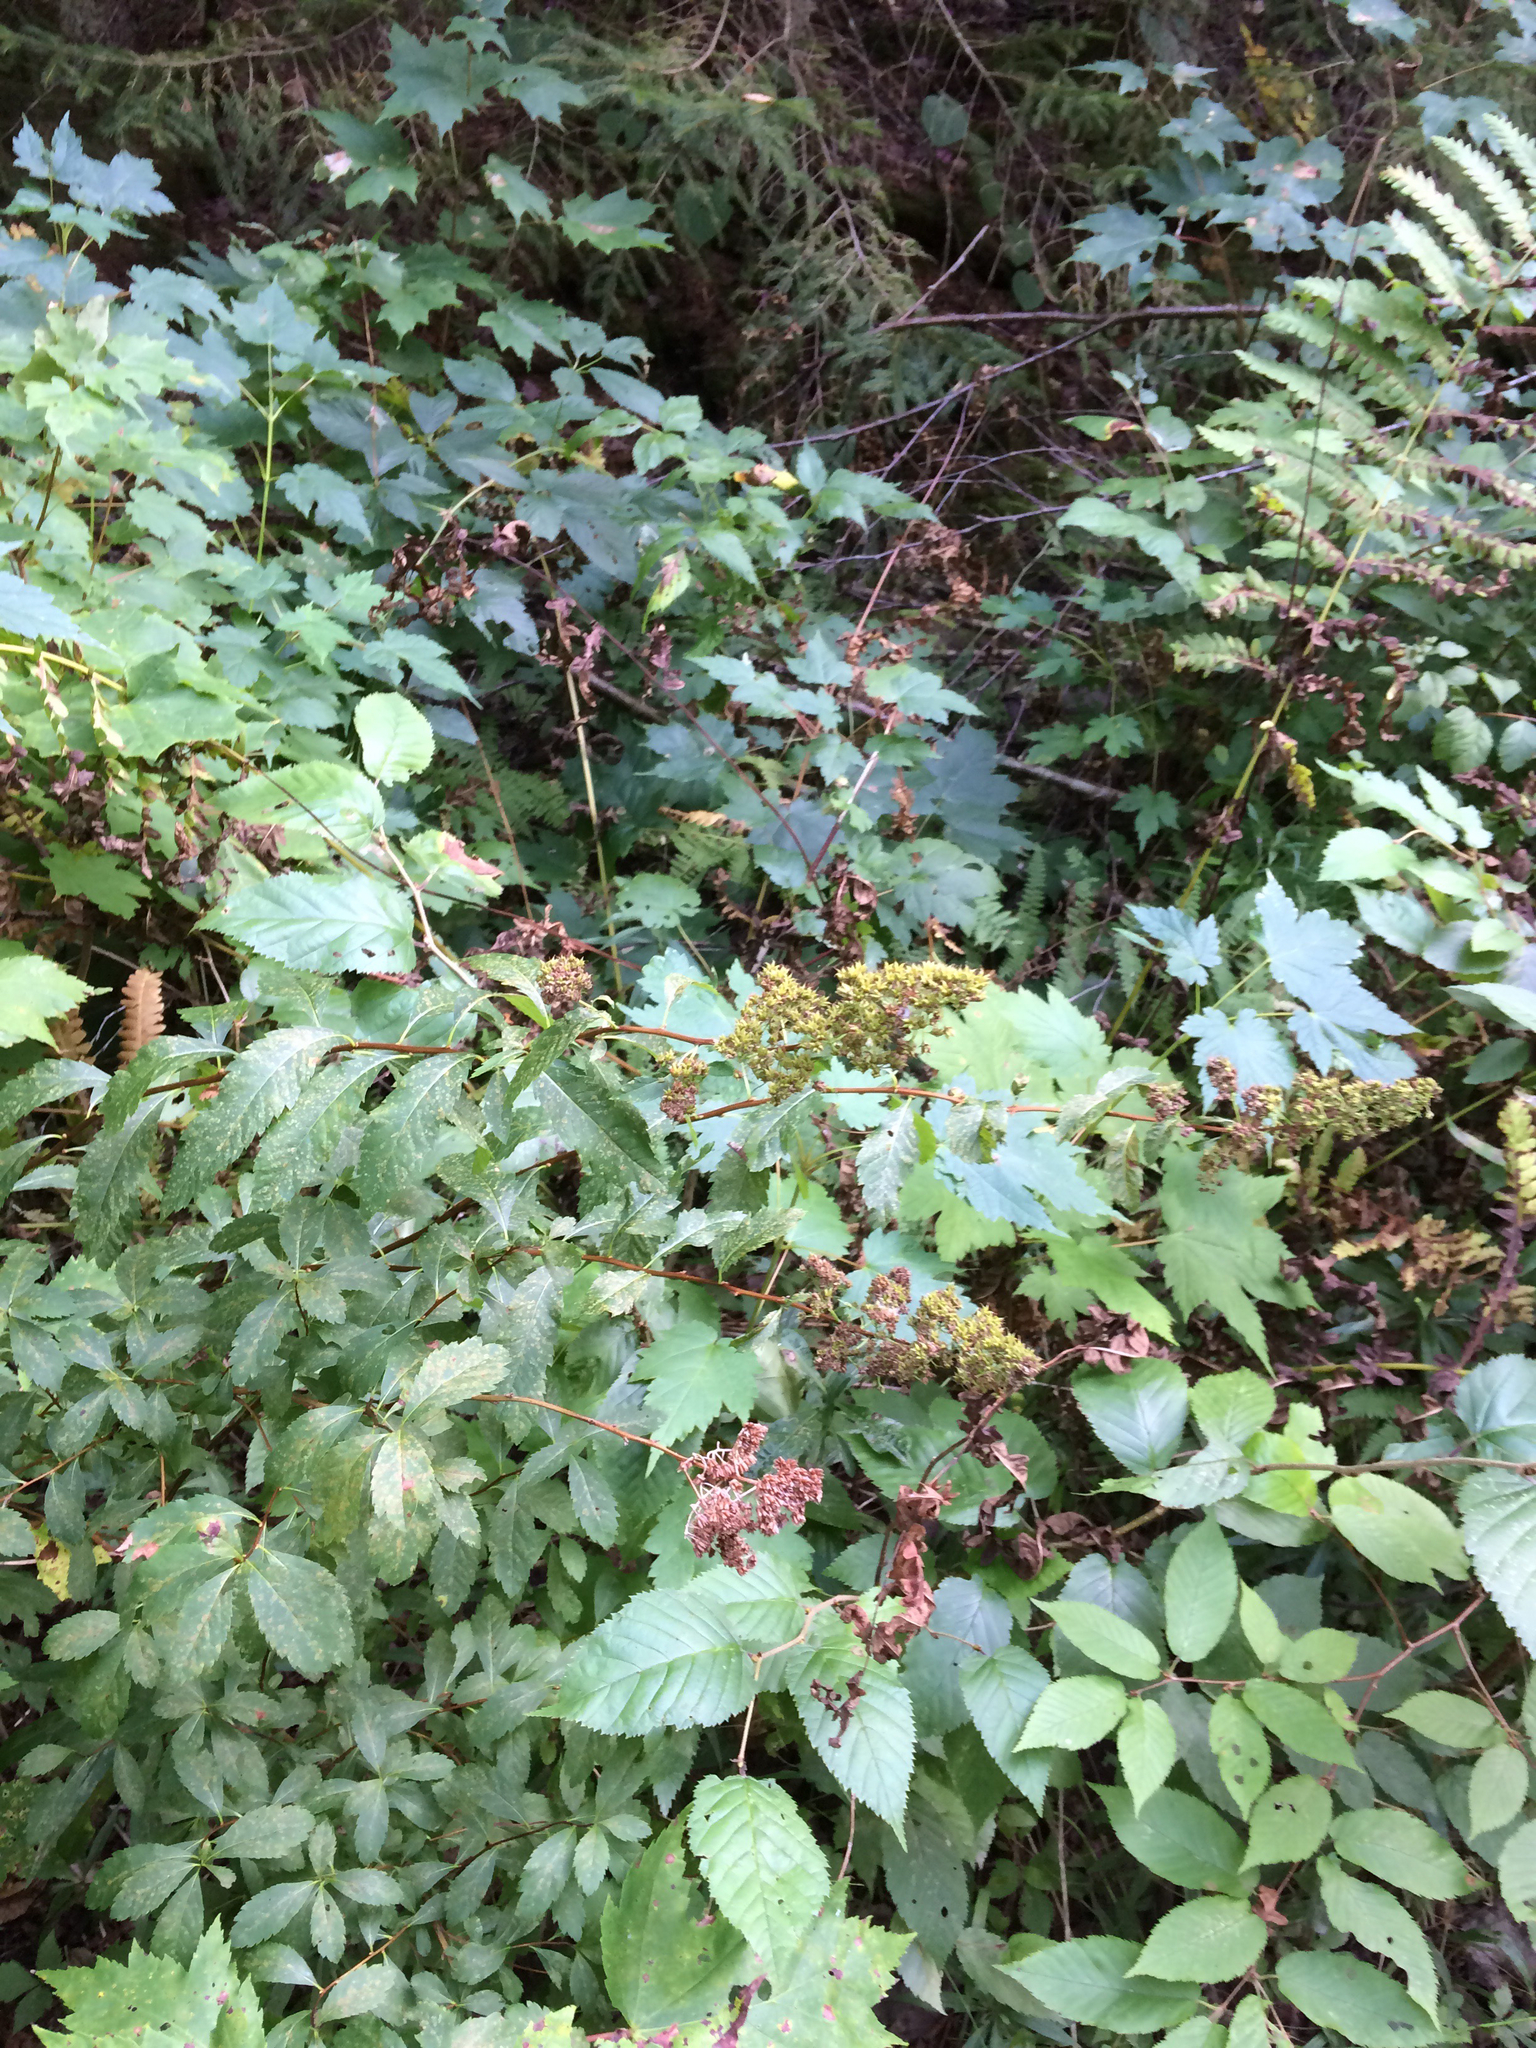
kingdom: Plantae
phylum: Tracheophyta
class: Magnoliopsida
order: Rosales
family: Rosaceae
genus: Spiraea
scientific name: Spiraea alba
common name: Pale bridewort
